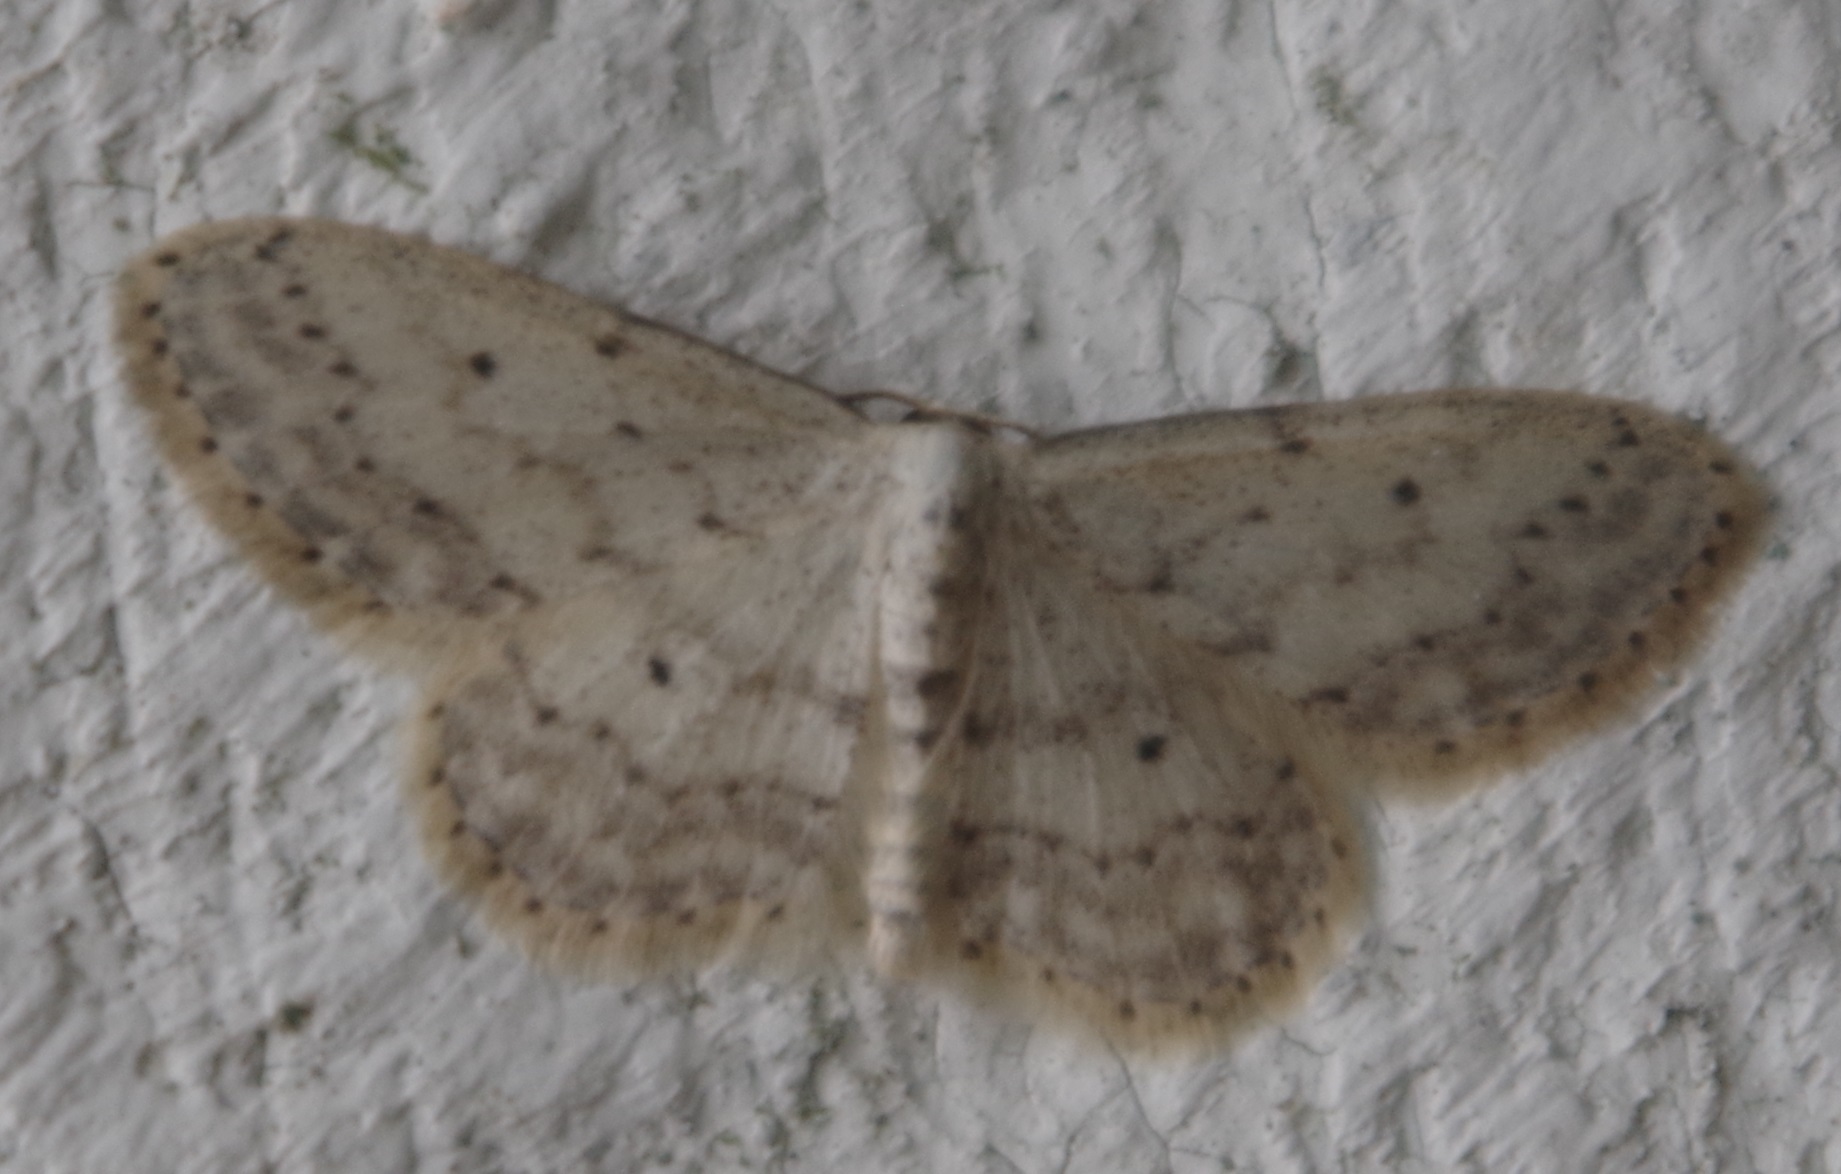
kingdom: Animalia
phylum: Arthropoda
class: Insecta
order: Lepidoptera
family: Geometridae
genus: Idaea
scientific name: Idaea seriata
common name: Small dusty wave
